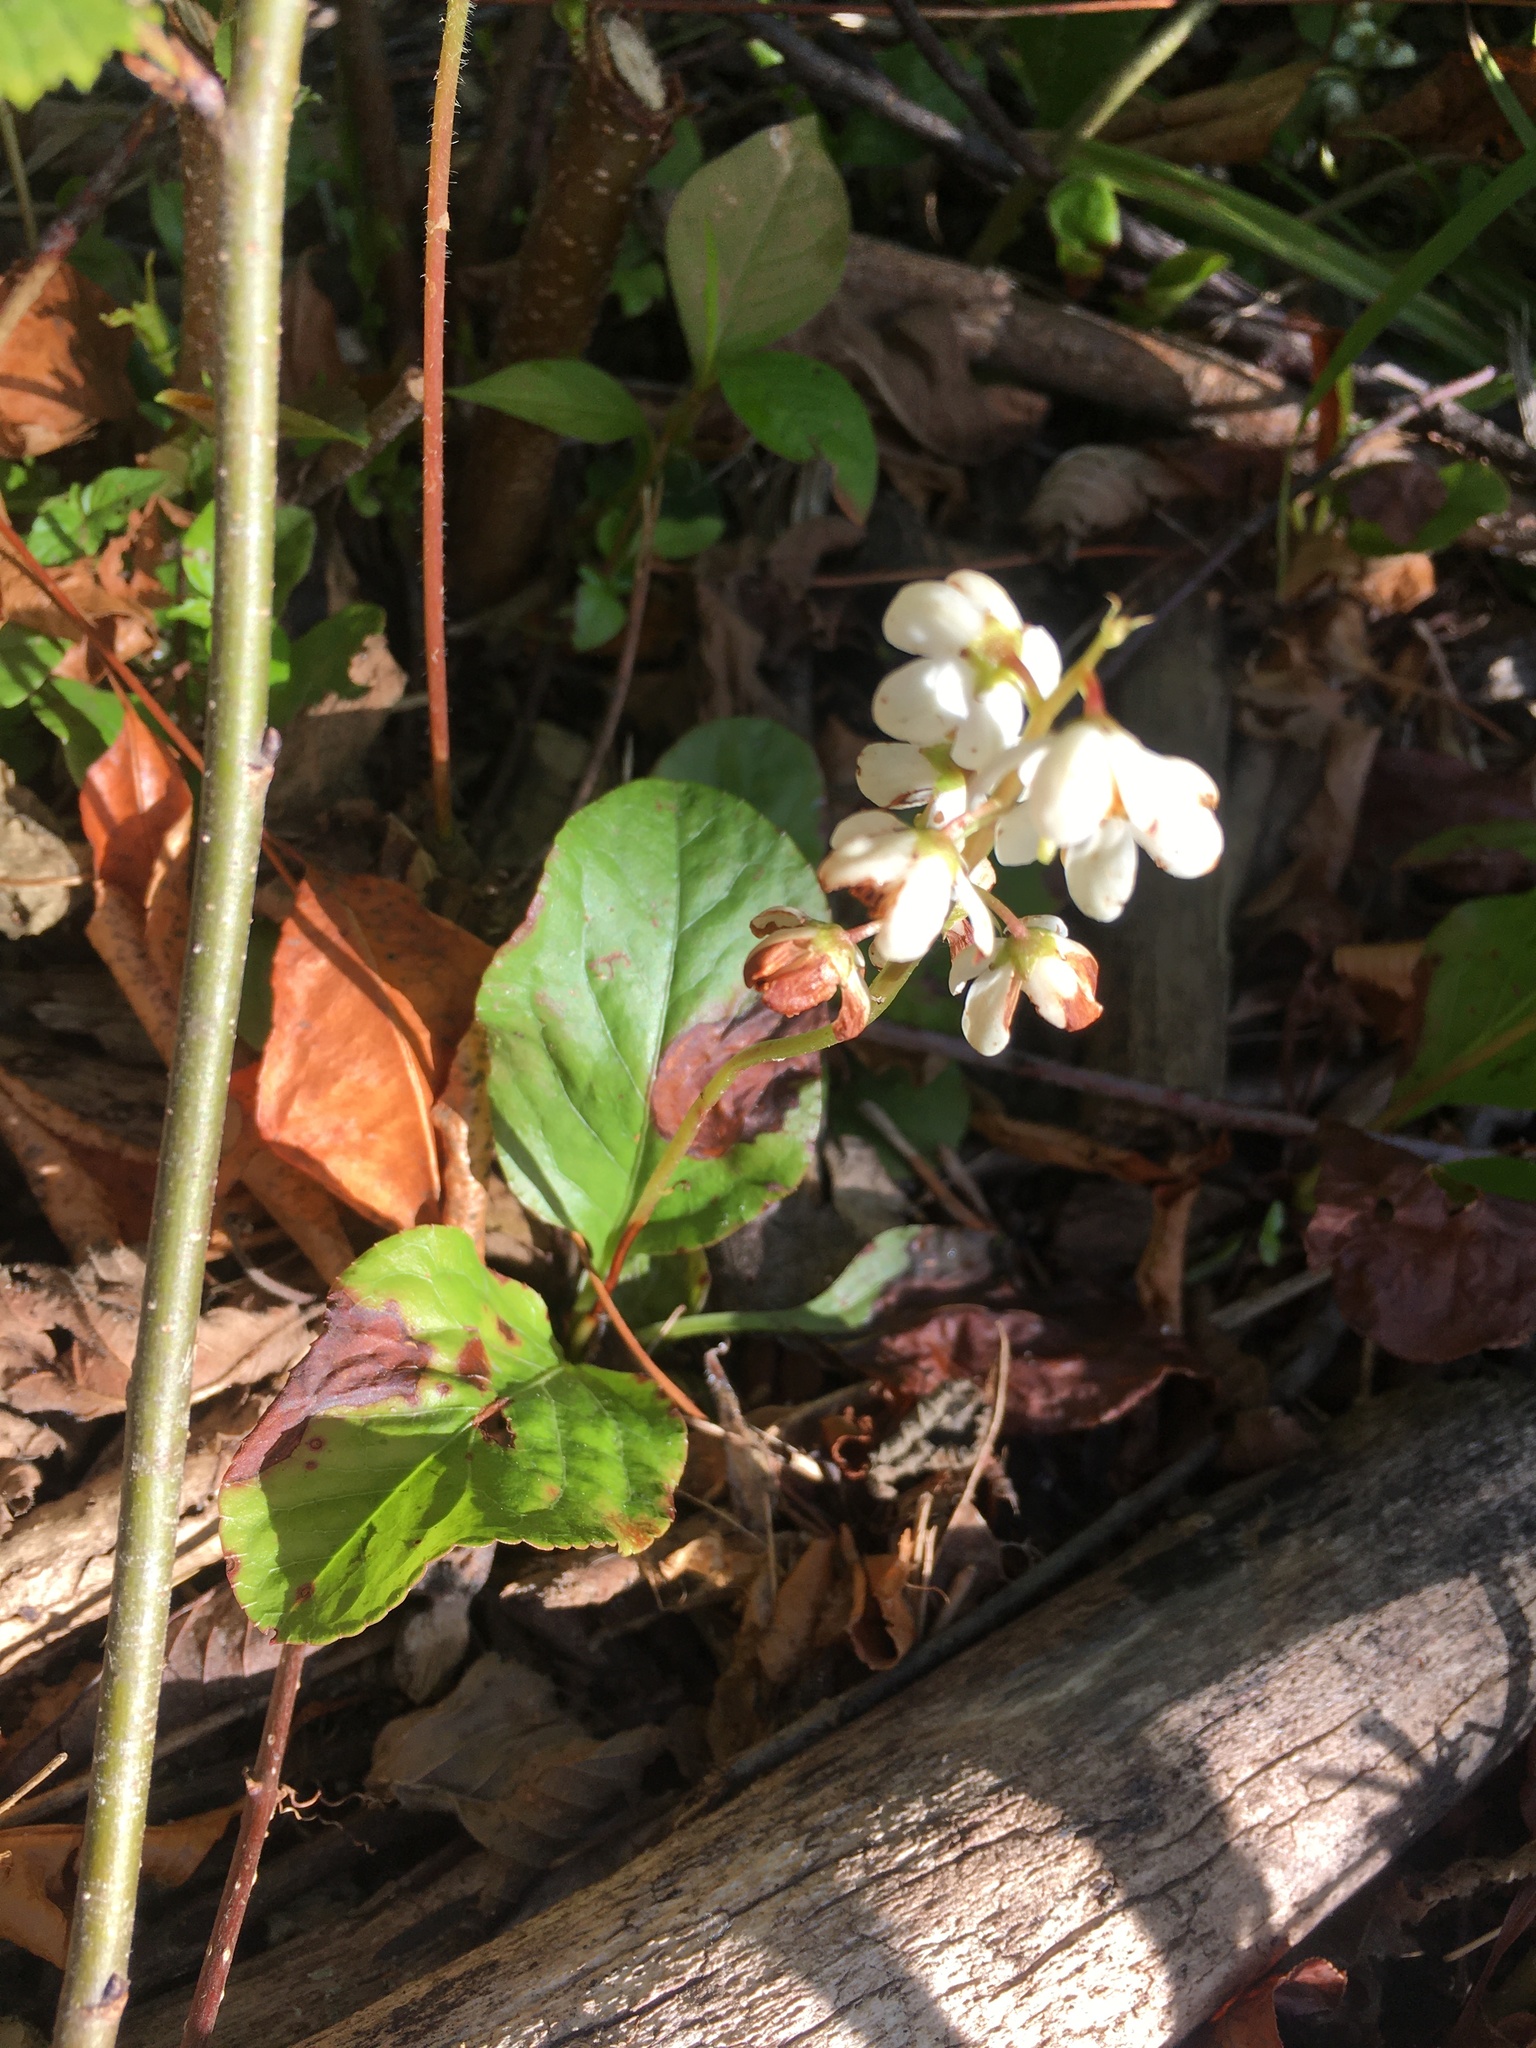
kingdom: Plantae
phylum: Tracheophyta
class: Magnoliopsida
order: Ericales
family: Ericaceae
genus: Pyrola
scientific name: Pyrola elliptica
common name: Shinleaf
